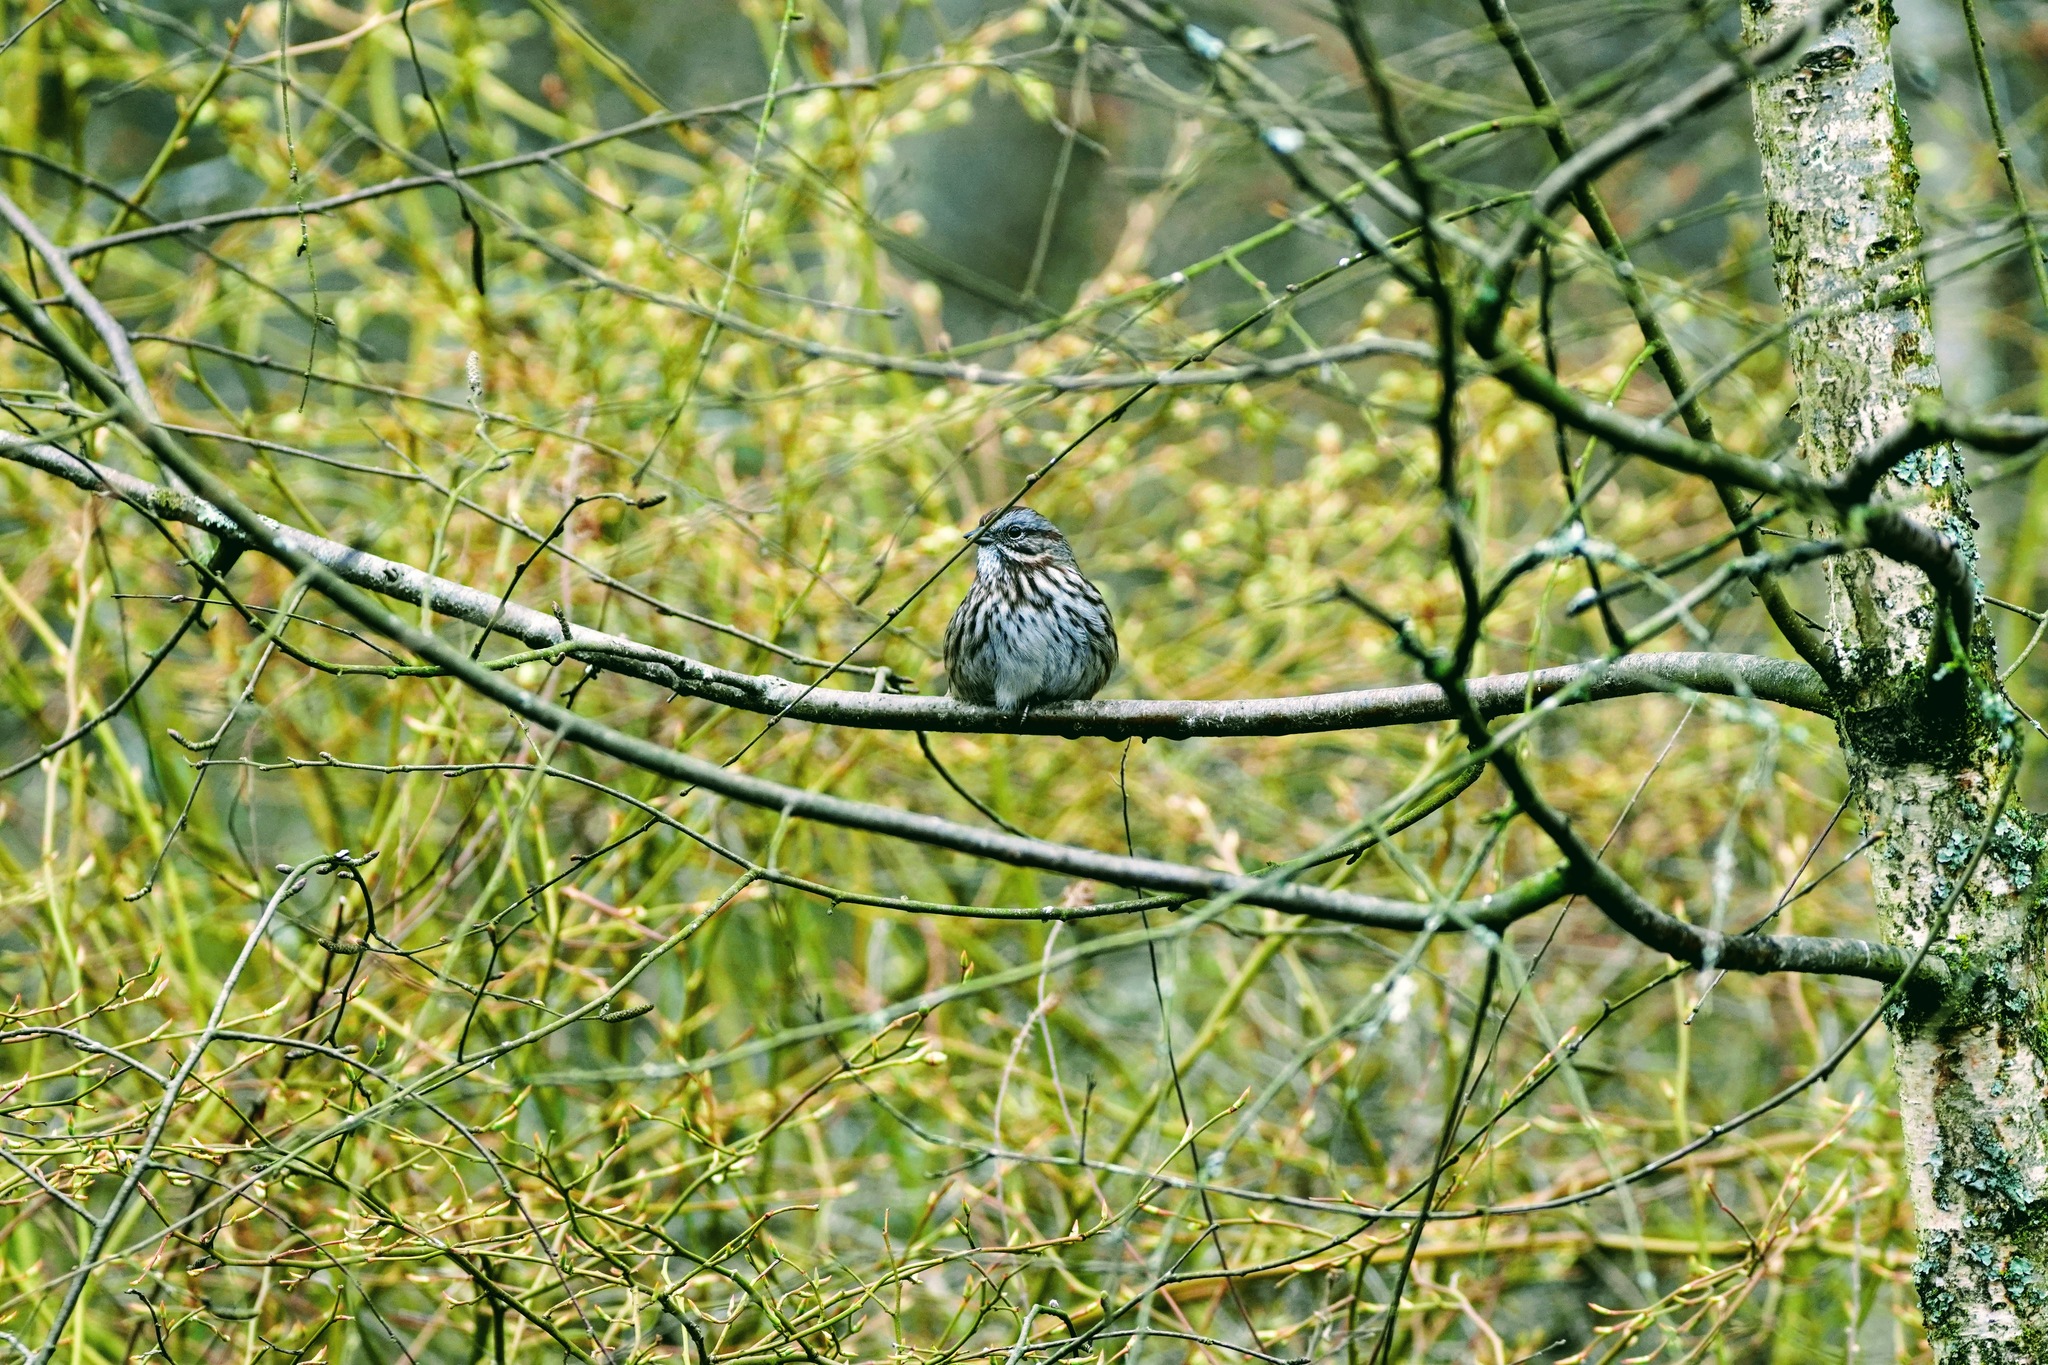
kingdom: Animalia
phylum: Chordata
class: Aves
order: Passeriformes
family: Passerellidae
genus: Melospiza
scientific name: Melospiza melodia
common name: Song sparrow
